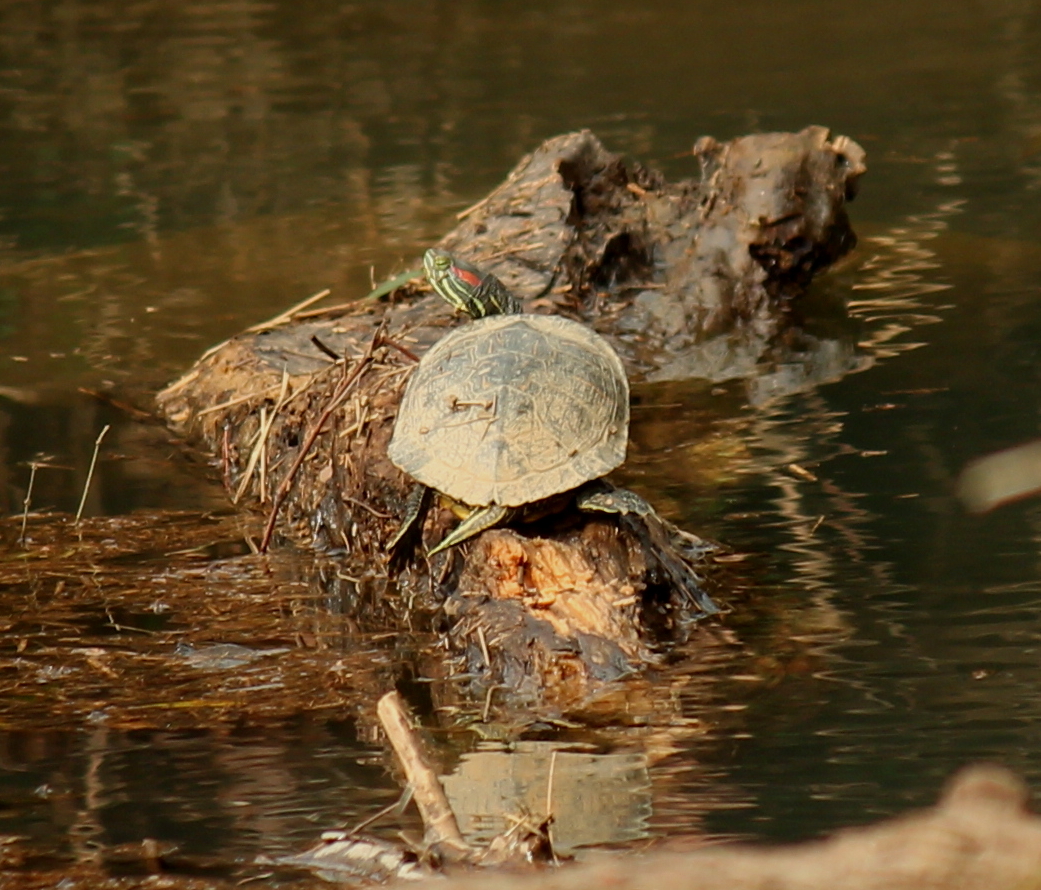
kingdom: Animalia
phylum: Chordata
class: Testudines
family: Emydidae
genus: Trachemys
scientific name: Trachemys scripta
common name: Slider
